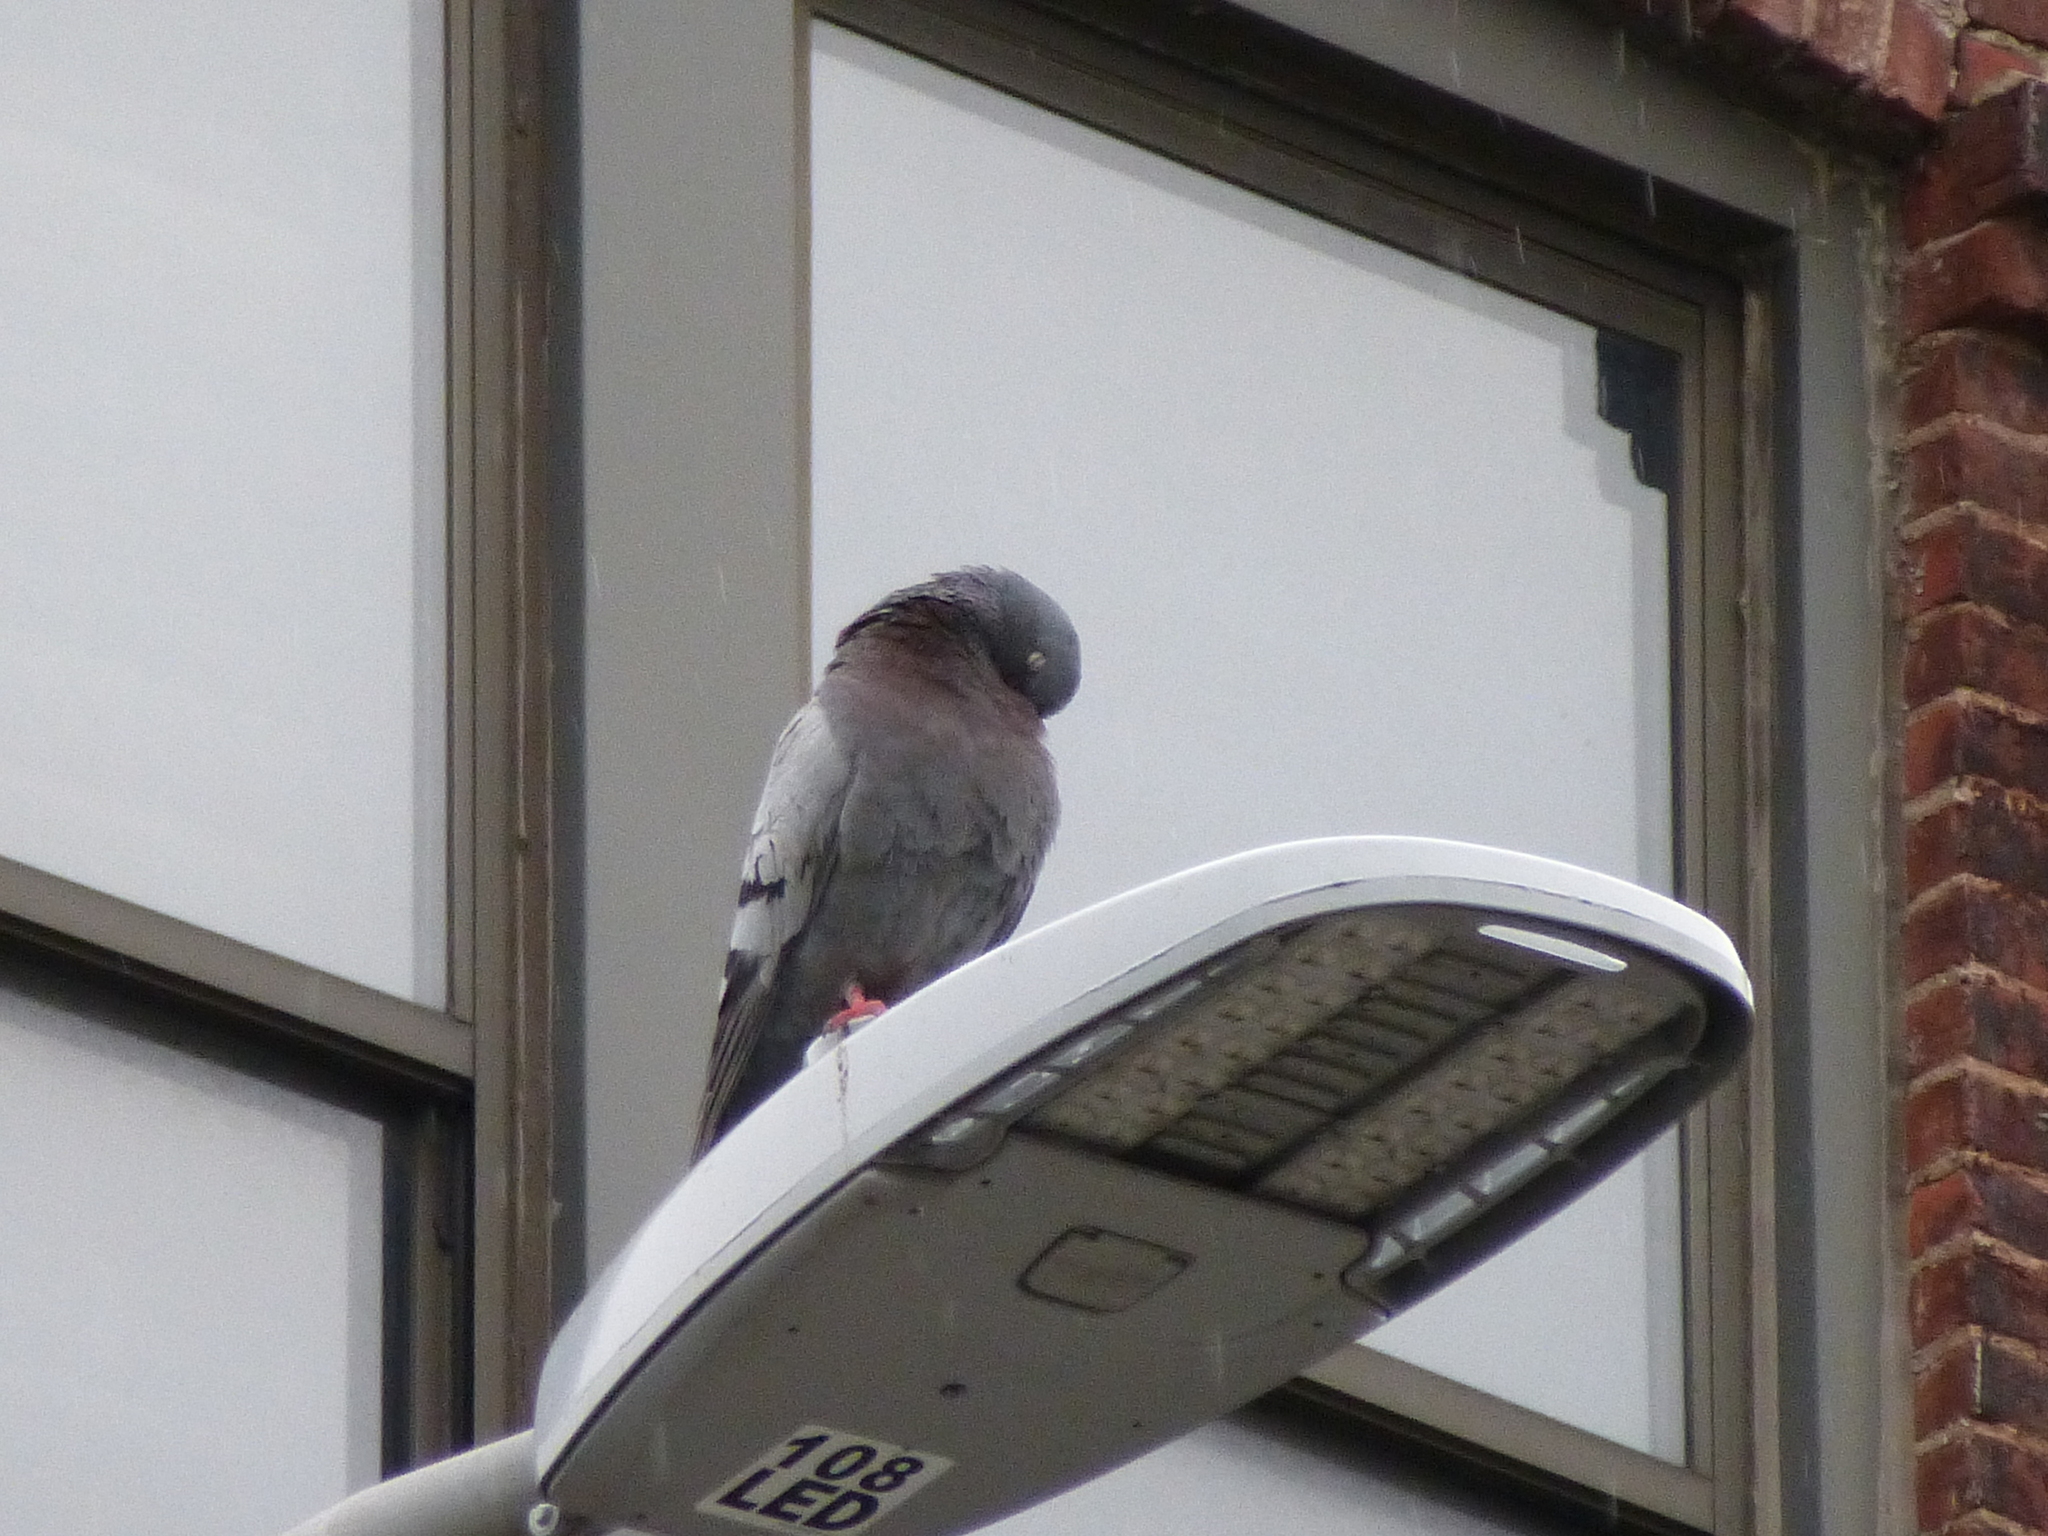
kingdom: Animalia
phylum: Chordata
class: Aves
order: Columbiformes
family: Columbidae
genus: Columba
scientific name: Columba livia
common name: Rock pigeon
